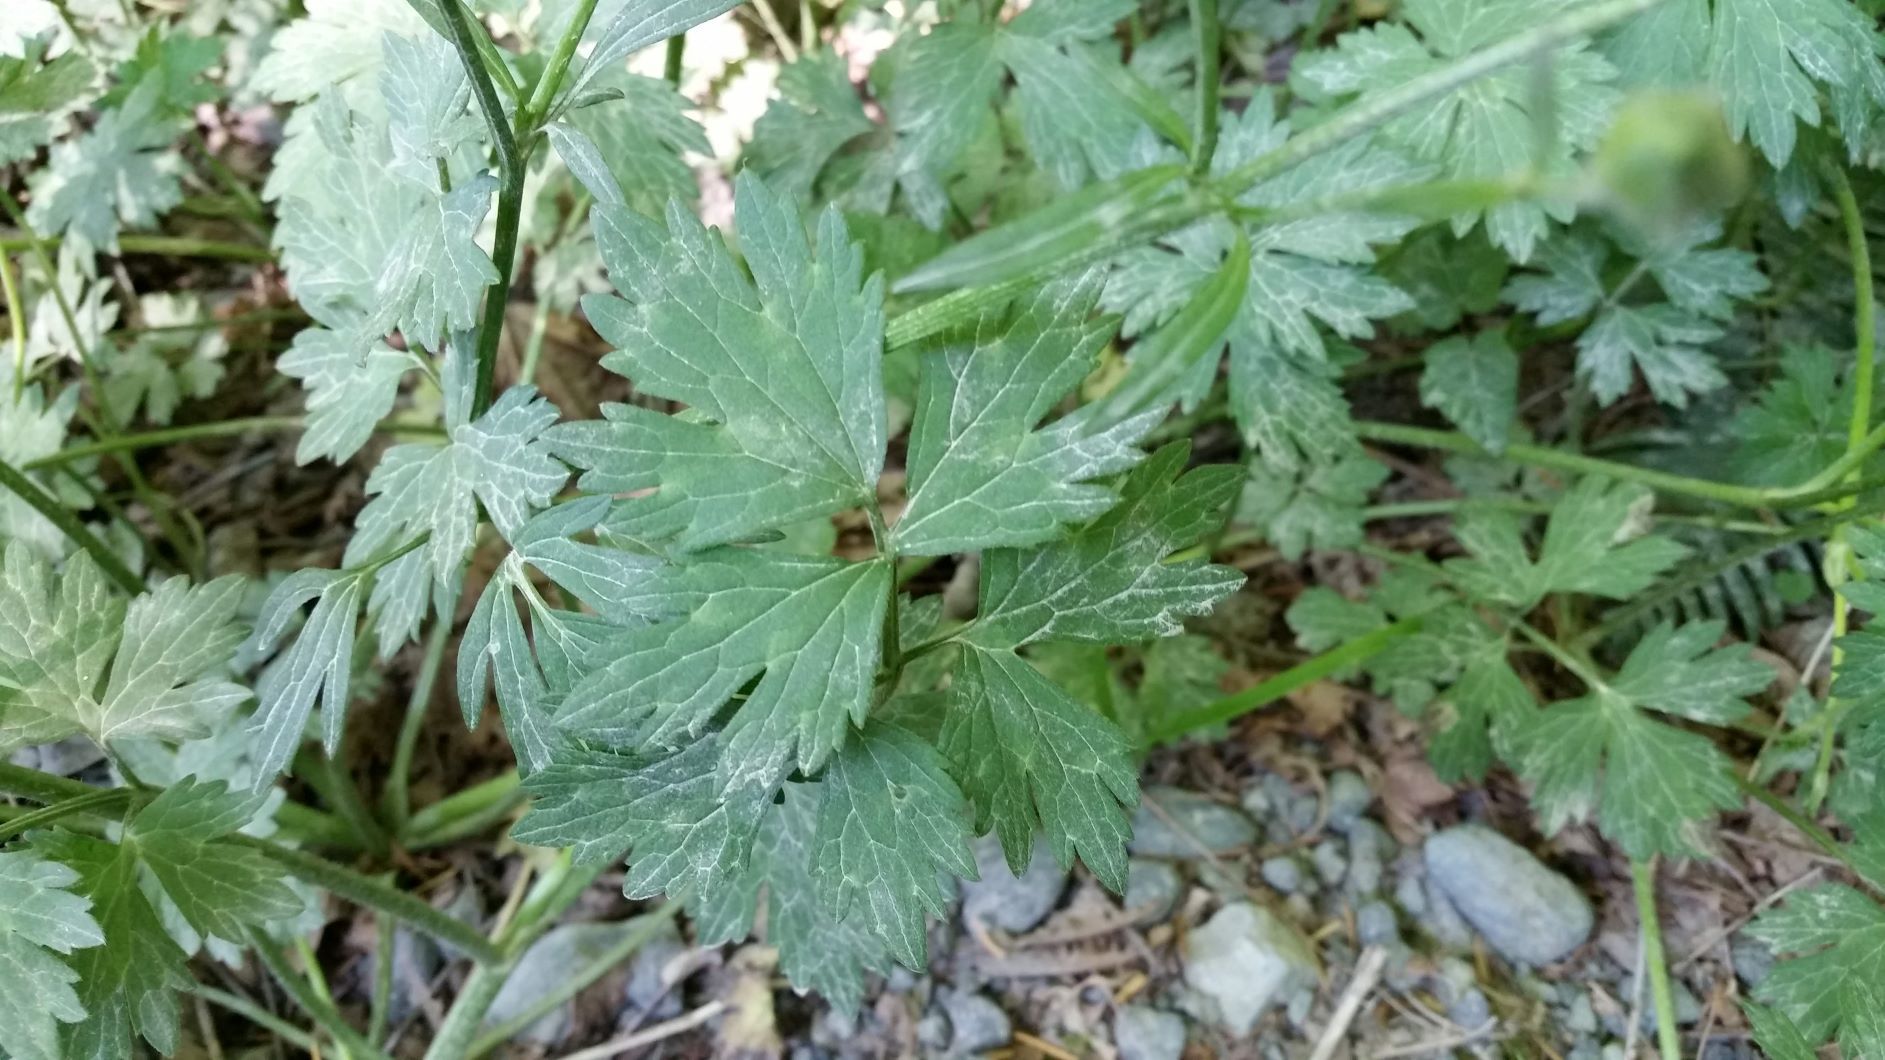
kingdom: Plantae
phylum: Tracheophyta
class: Magnoliopsida
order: Ranunculales
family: Ranunculaceae
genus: Ranunculus
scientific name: Ranunculus repens
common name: Creeping buttercup
